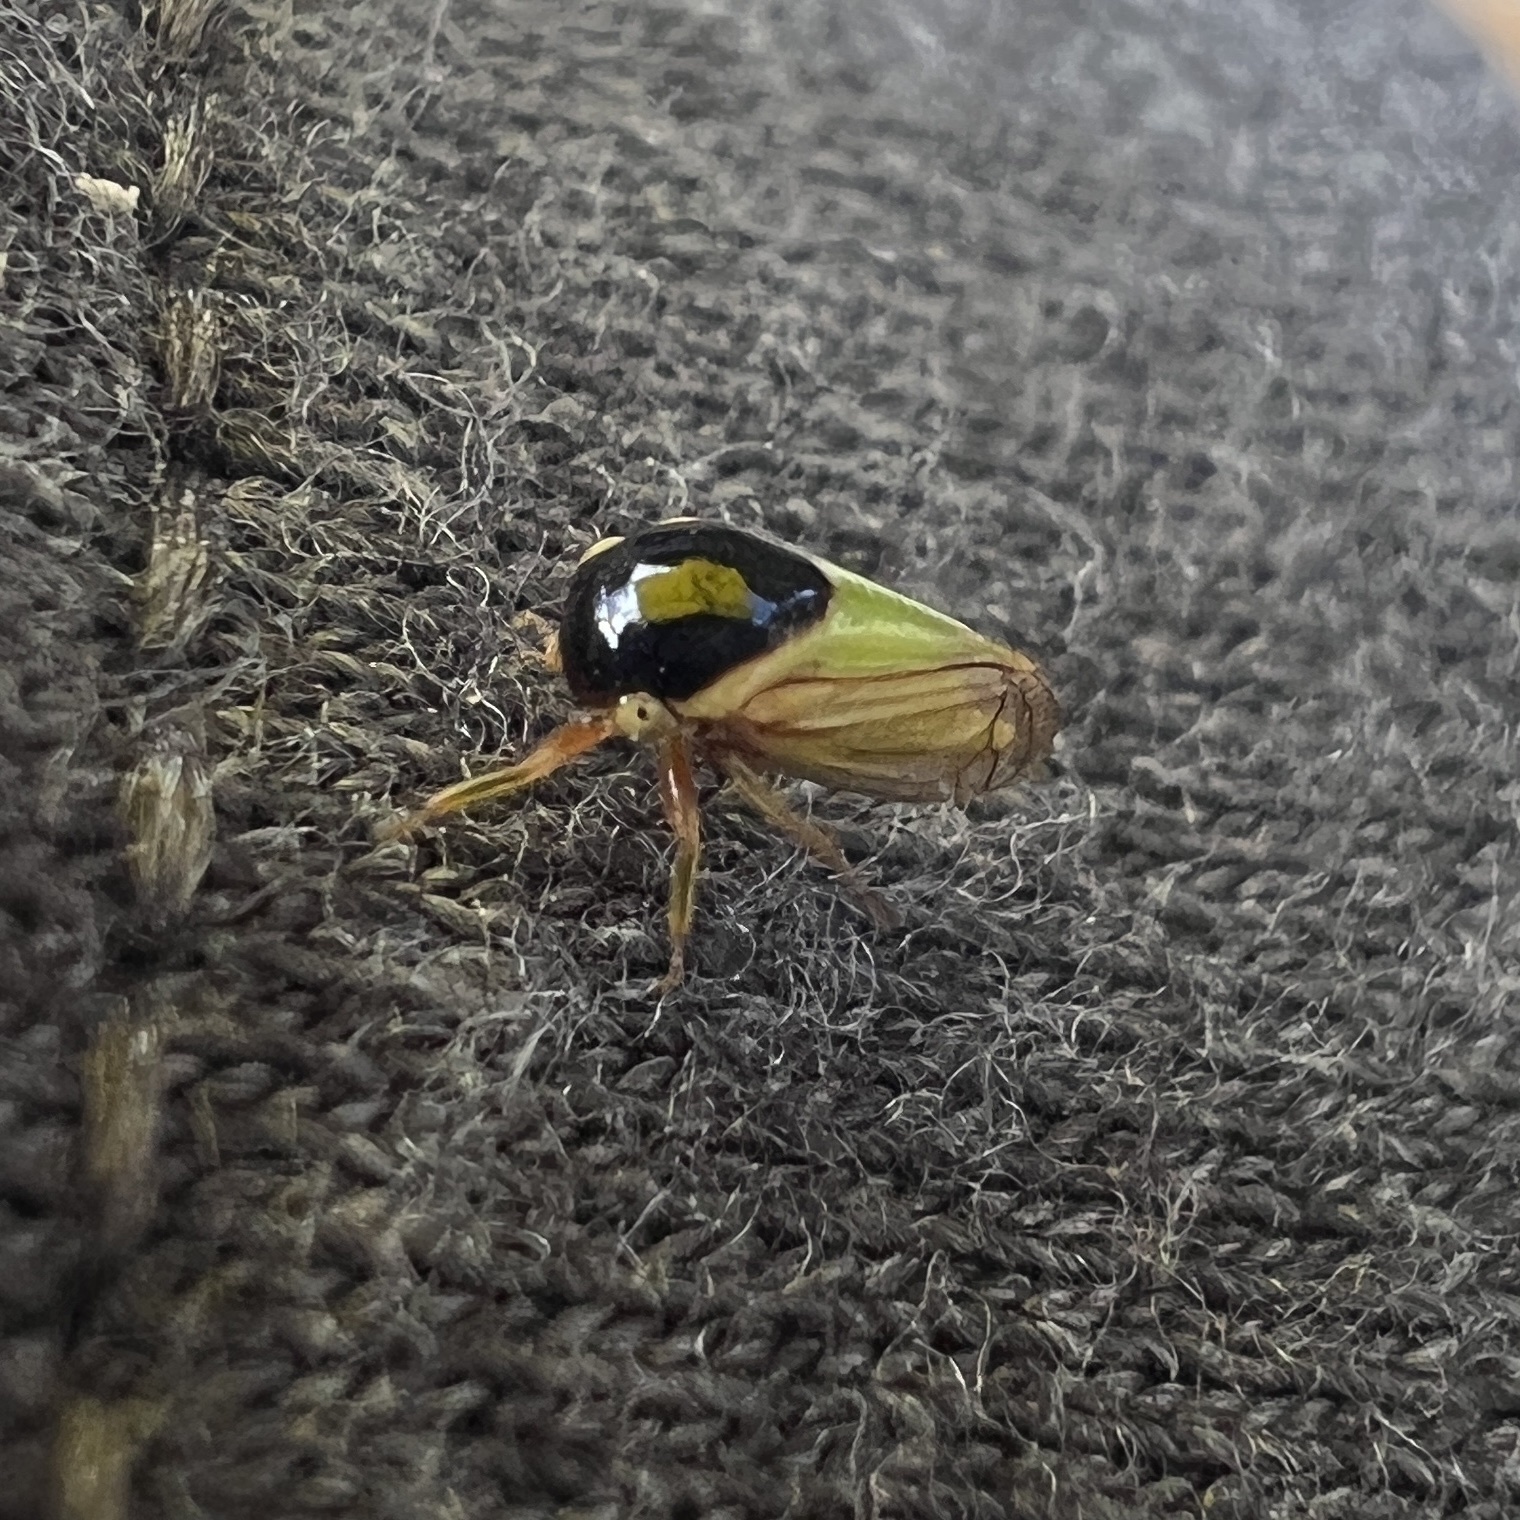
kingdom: Animalia
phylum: Arthropoda
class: Insecta
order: Hemiptera
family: Membracidae
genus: Acutalis
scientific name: Acutalis tartarea
